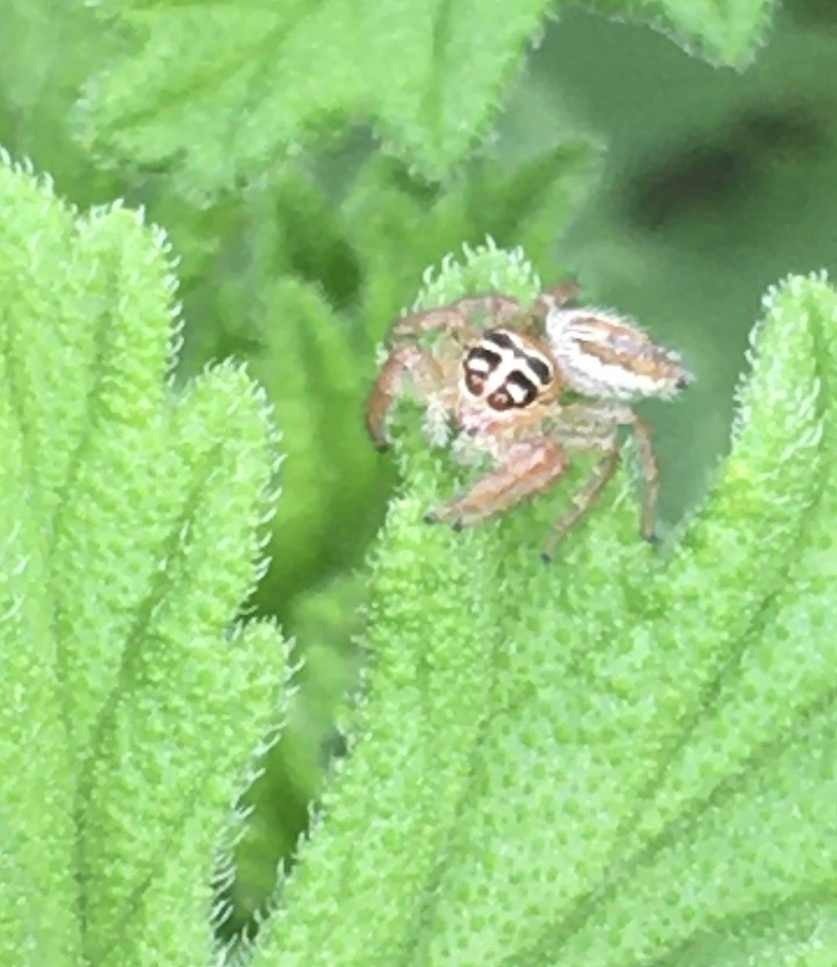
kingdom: Animalia
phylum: Arthropoda
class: Arachnida
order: Araneae
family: Salticidae
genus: Thyene
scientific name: Thyene inflata
